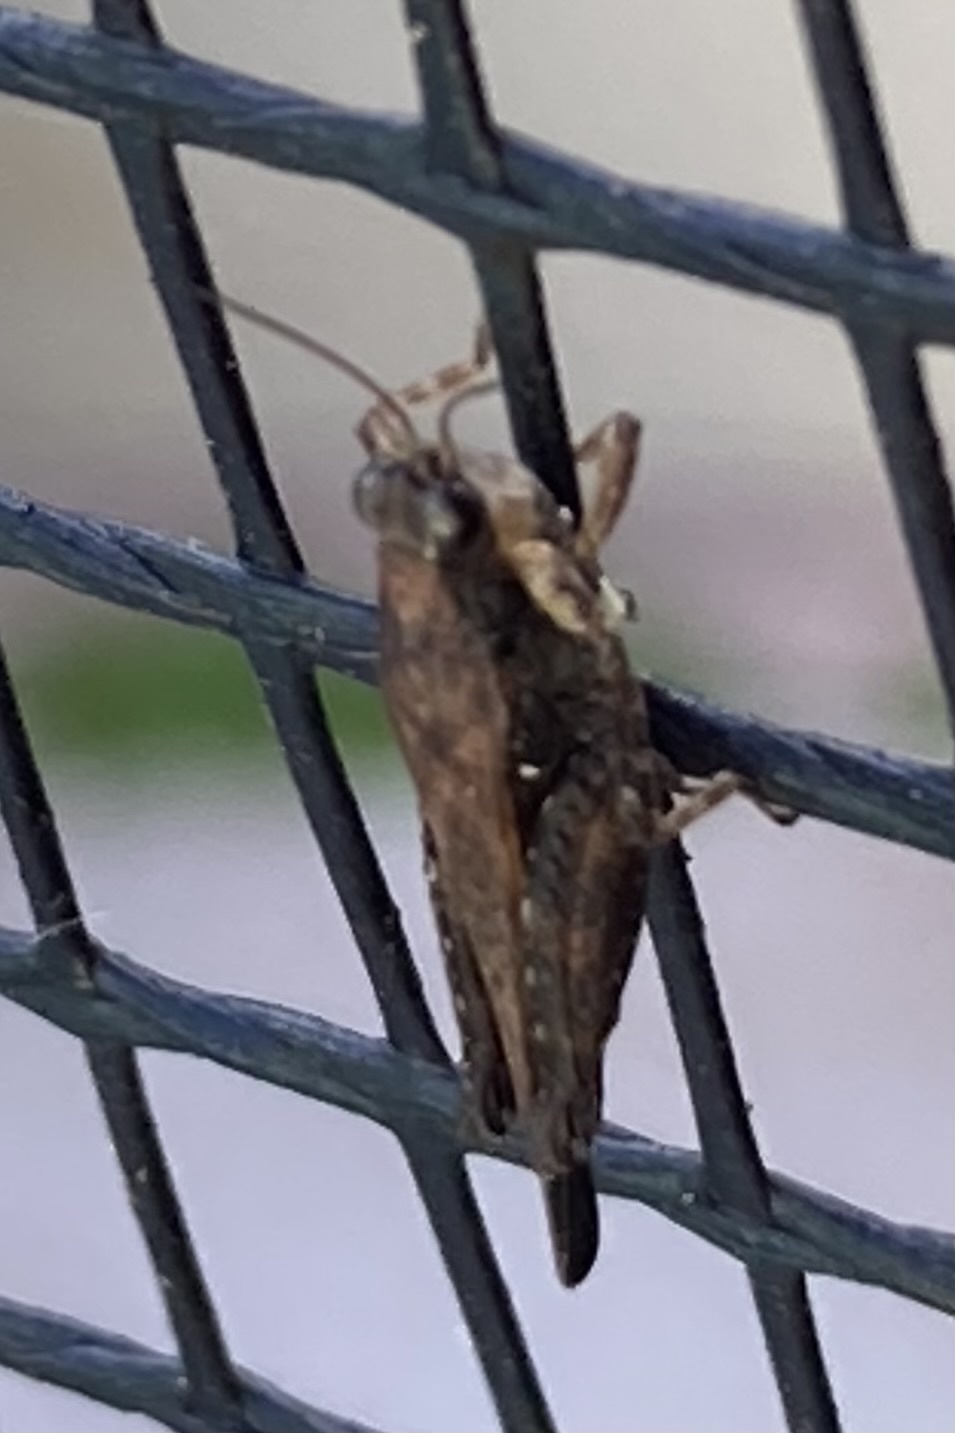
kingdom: Animalia
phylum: Arthropoda
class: Insecta
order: Orthoptera
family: Tetrigidae
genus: Tettigidea
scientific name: Tettigidea laterale
